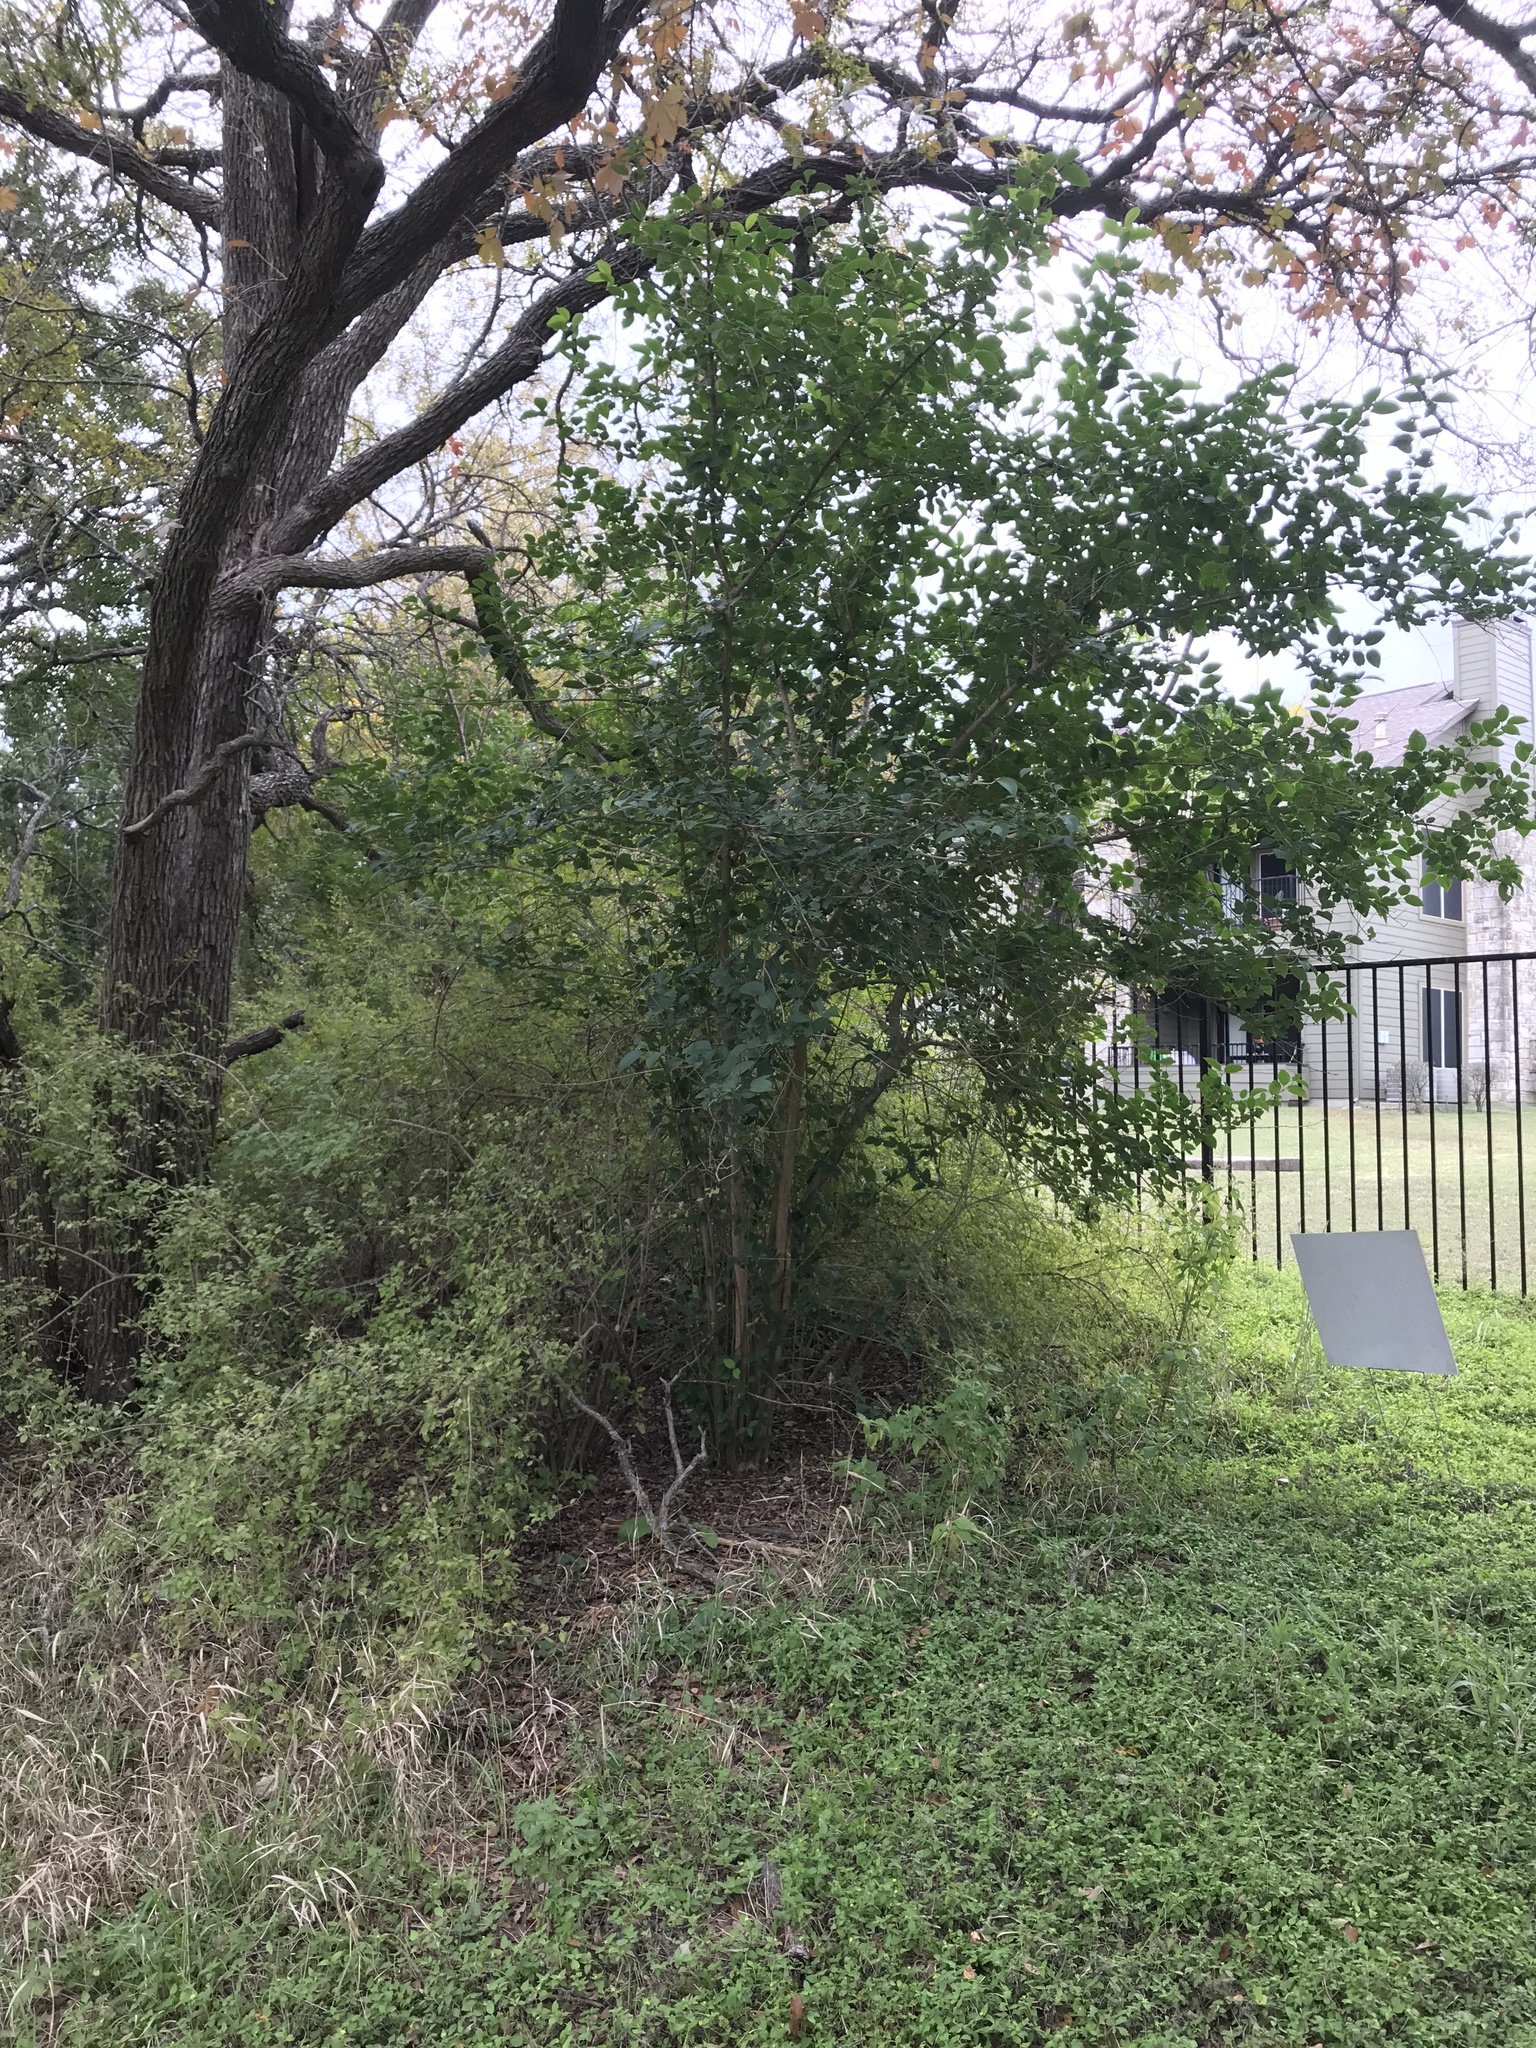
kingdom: Plantae
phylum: Tracheophyta
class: Magnoliopsida
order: Lamiales
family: Oleaceae
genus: Ligustrum
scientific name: Ligustrum lucidum
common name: Glossy privet
